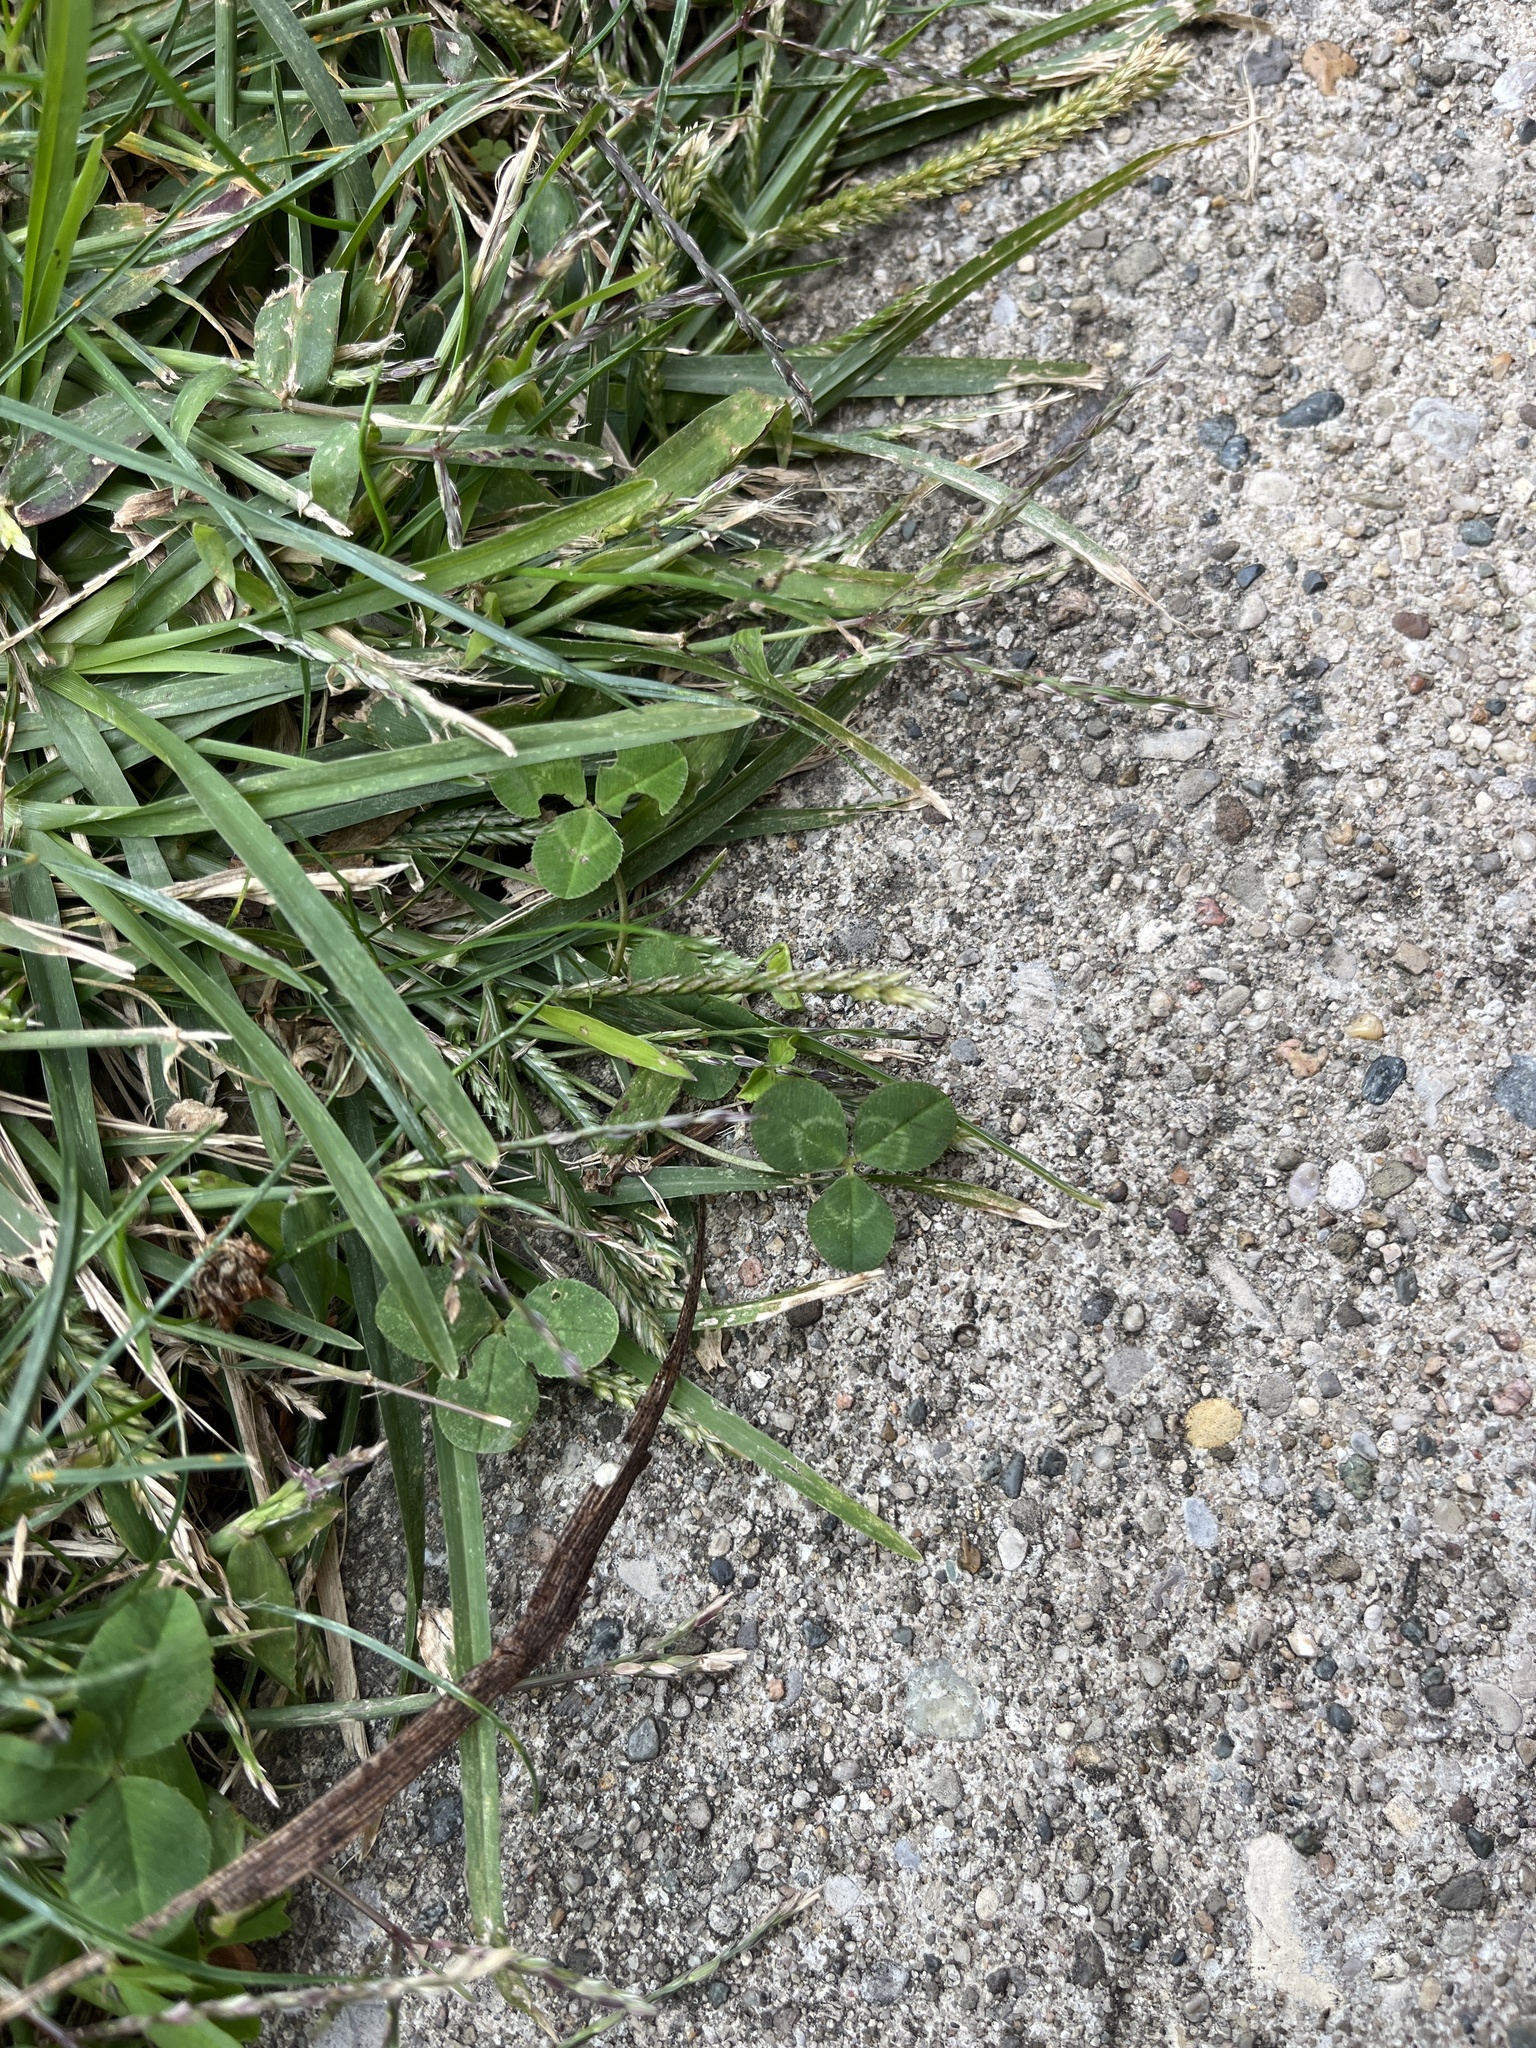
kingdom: Plantae
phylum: Tracheophyta
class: Magnoliopsida
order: Fabales
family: Fabaceae
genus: Trifolium
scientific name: Trifolium repens
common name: White clover
